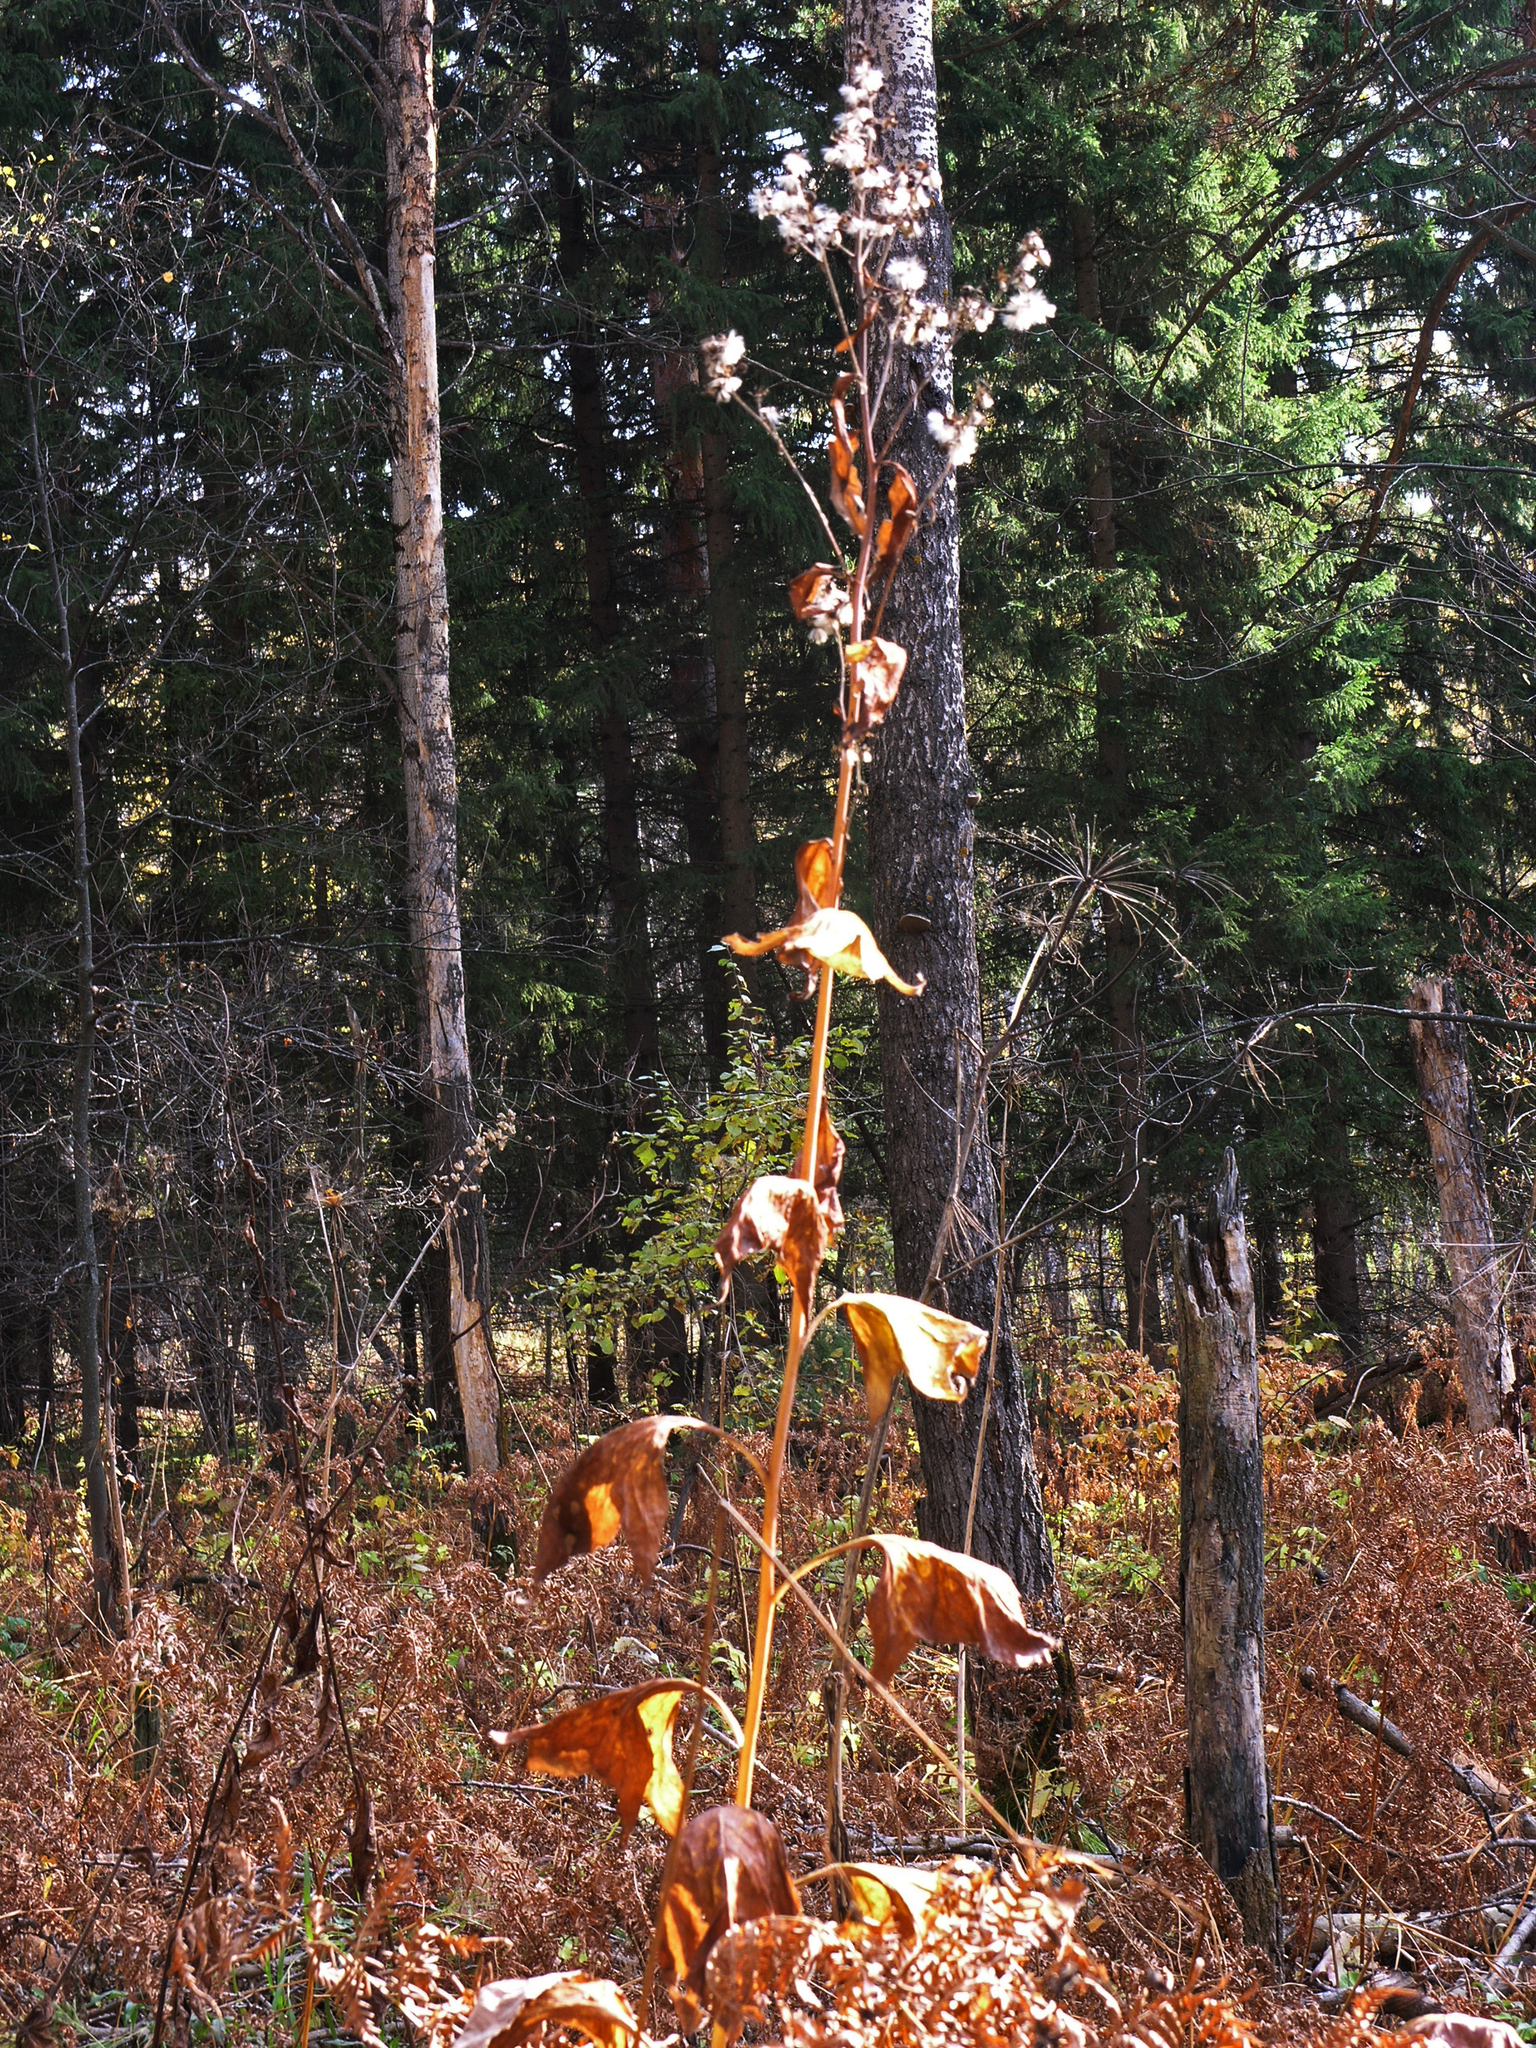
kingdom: Plantae
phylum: Tracheophyta
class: Magnoliopsida
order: Asterales
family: Asteraceae
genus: Parasenecio
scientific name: Parasenecio hastatus
